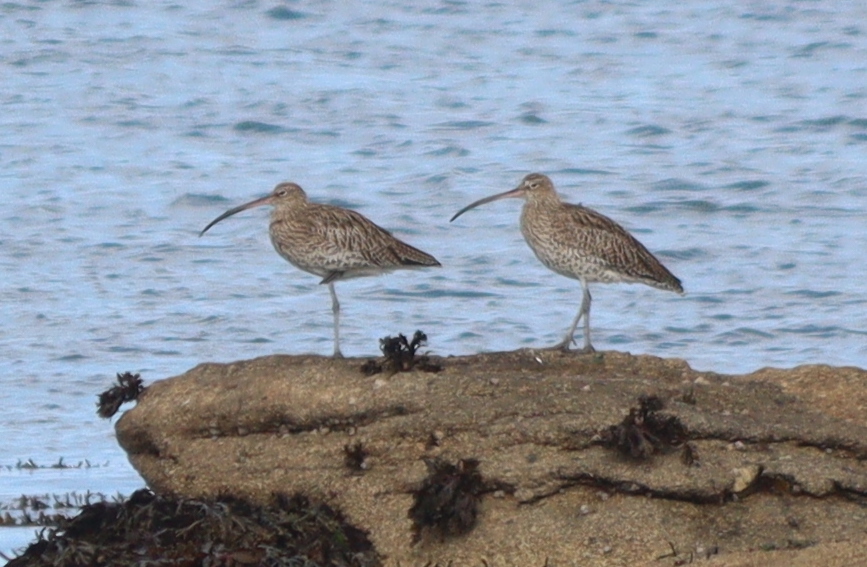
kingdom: Animalia
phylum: Chordata
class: Aves
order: Charadriiformes
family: Scolopacidae
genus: Numenius
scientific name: Numenius arquata
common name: Eurasian curlew
